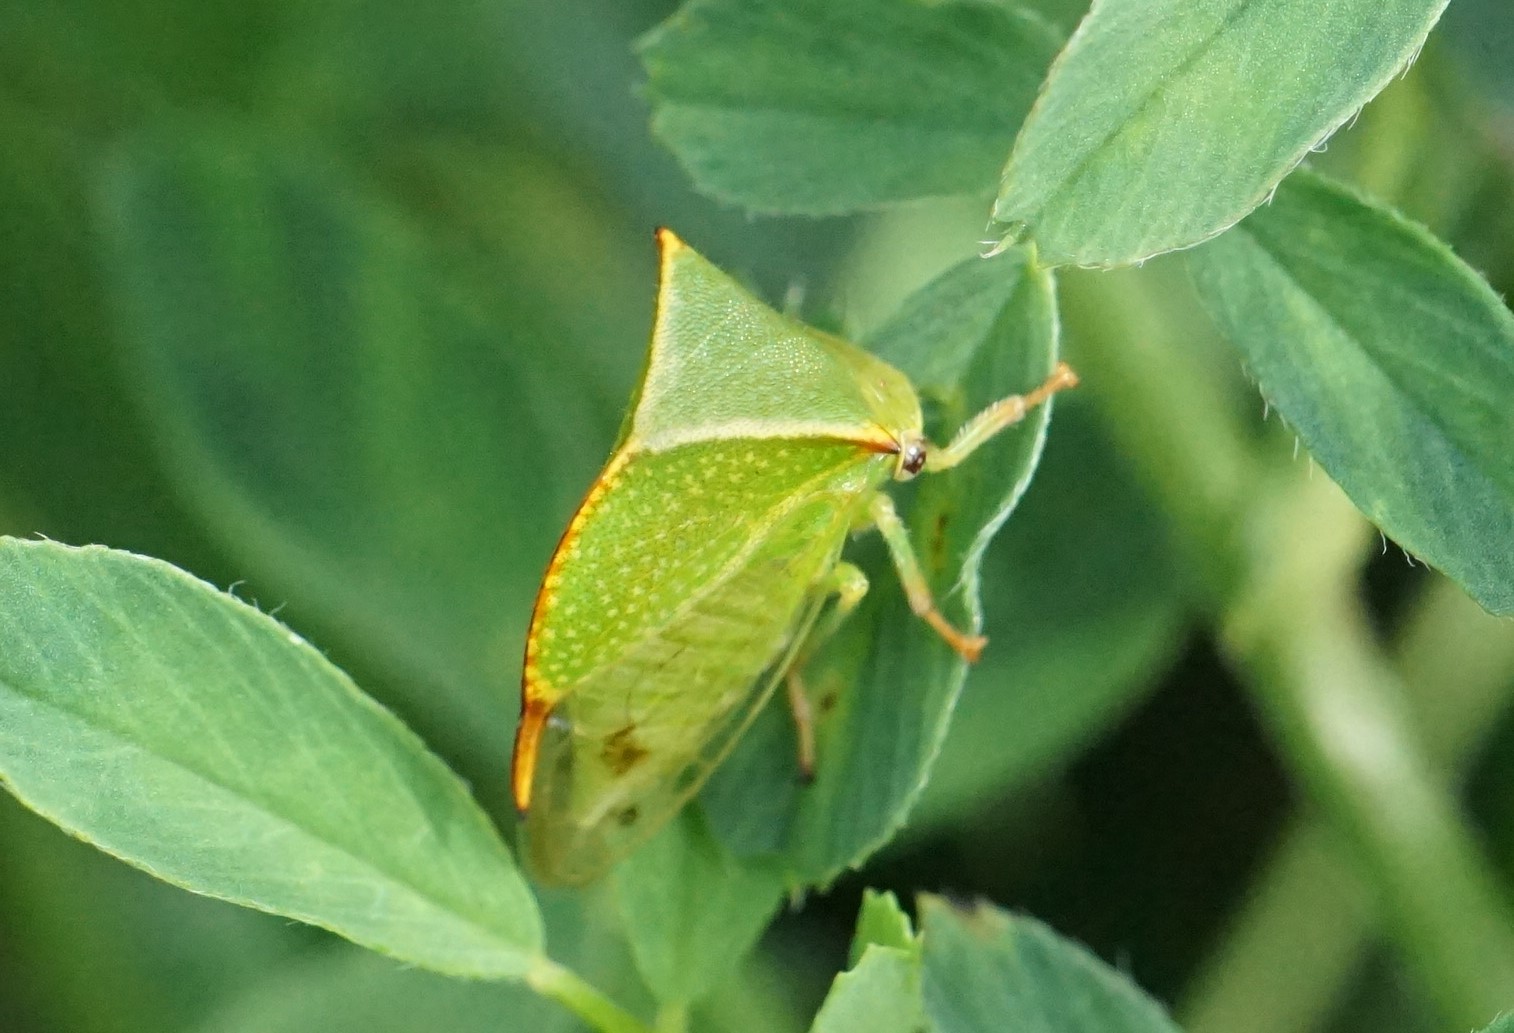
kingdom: Animalia
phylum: Arthropoda
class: Insecta
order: Hemiptera
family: Membracidae
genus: Stictocephala
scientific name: Stictocephala bisonia
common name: American buffalo treehopper
